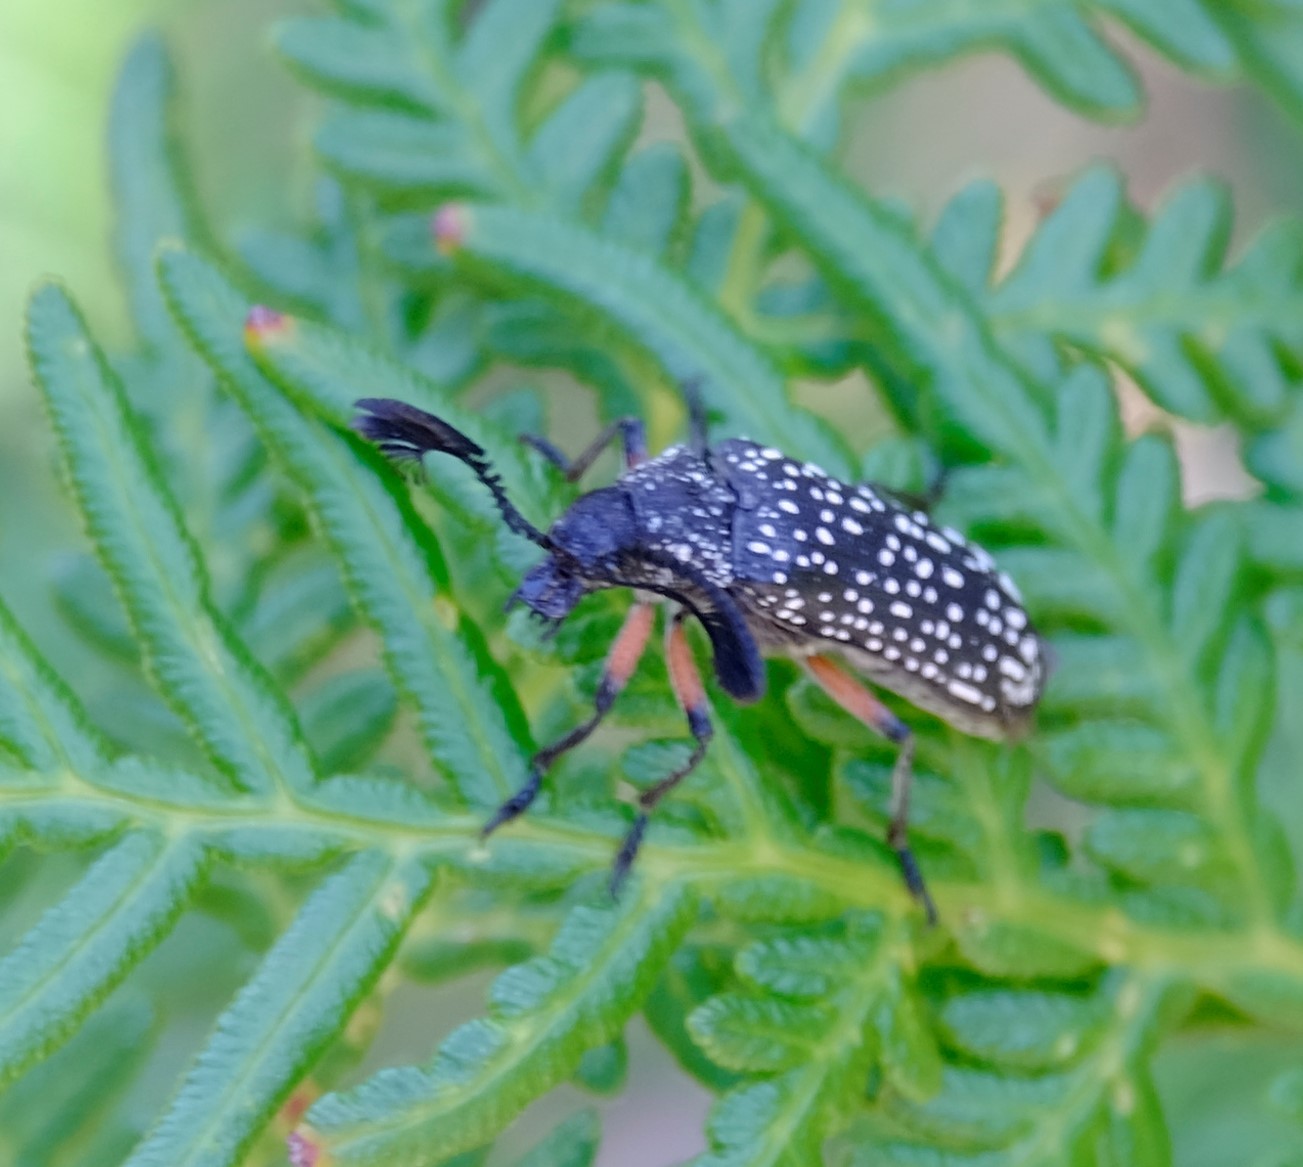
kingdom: Animalia
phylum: Arthropoda
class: Insecta
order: Coleoptera
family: Rhipiceridae
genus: Rhipicera
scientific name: Rhipicera femorata
